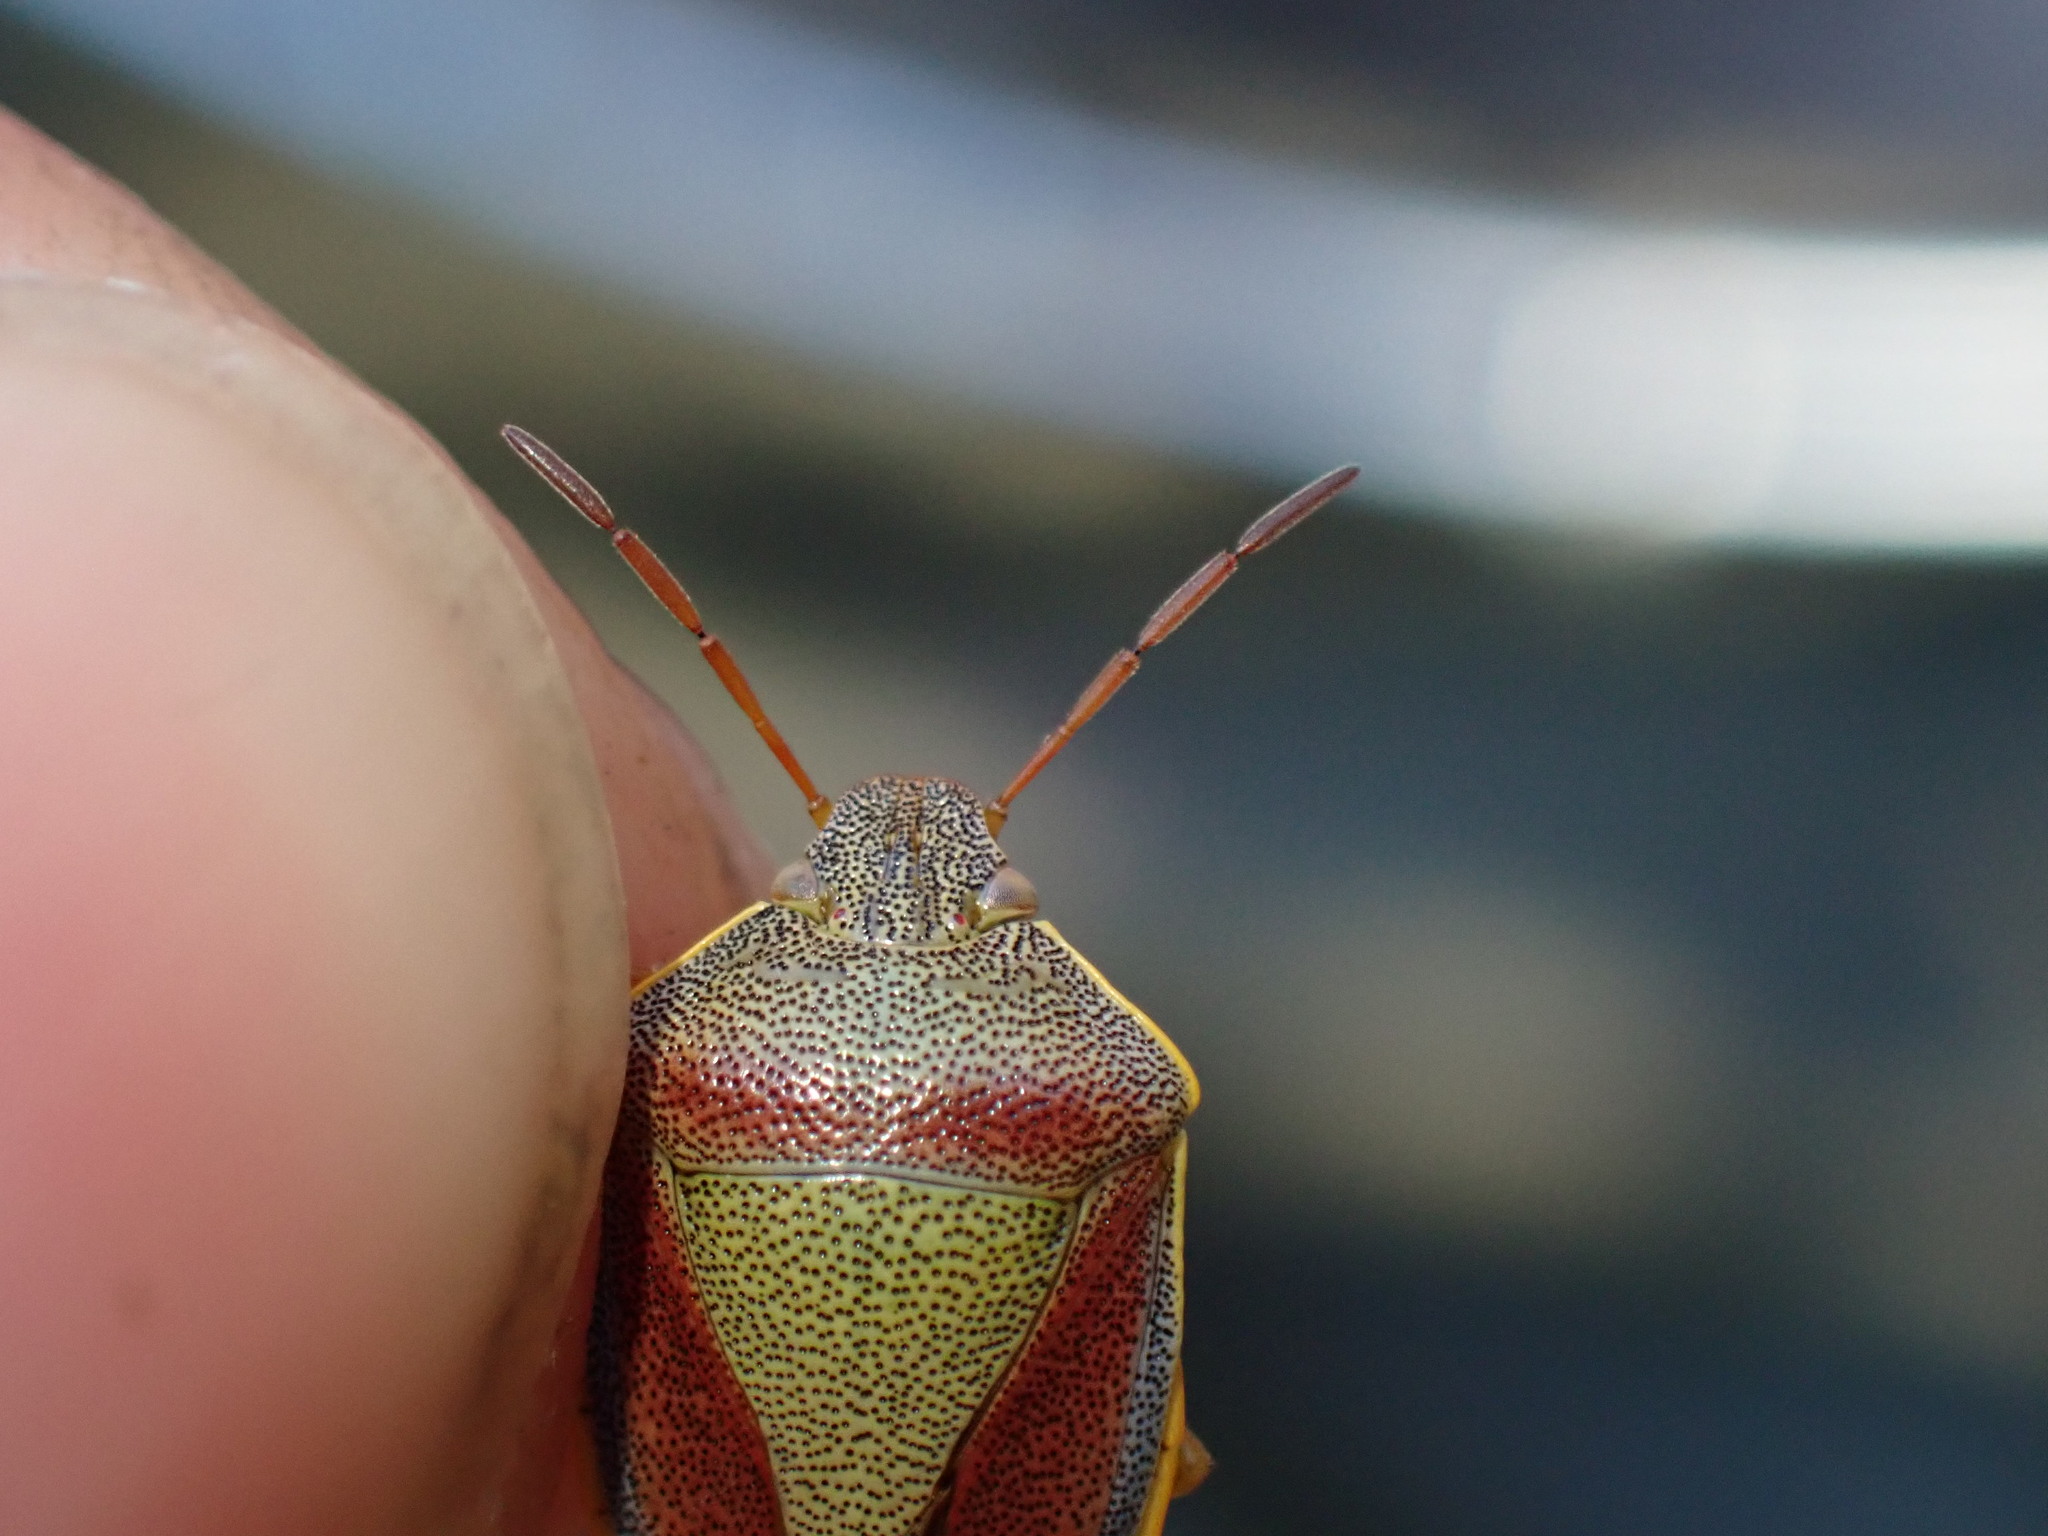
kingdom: Animalia
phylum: Arthropoda
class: Insecta
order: Hemiptera
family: Pentatomidae
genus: Piezodorus
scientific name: Piezodorus lituratus
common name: Stink bug
